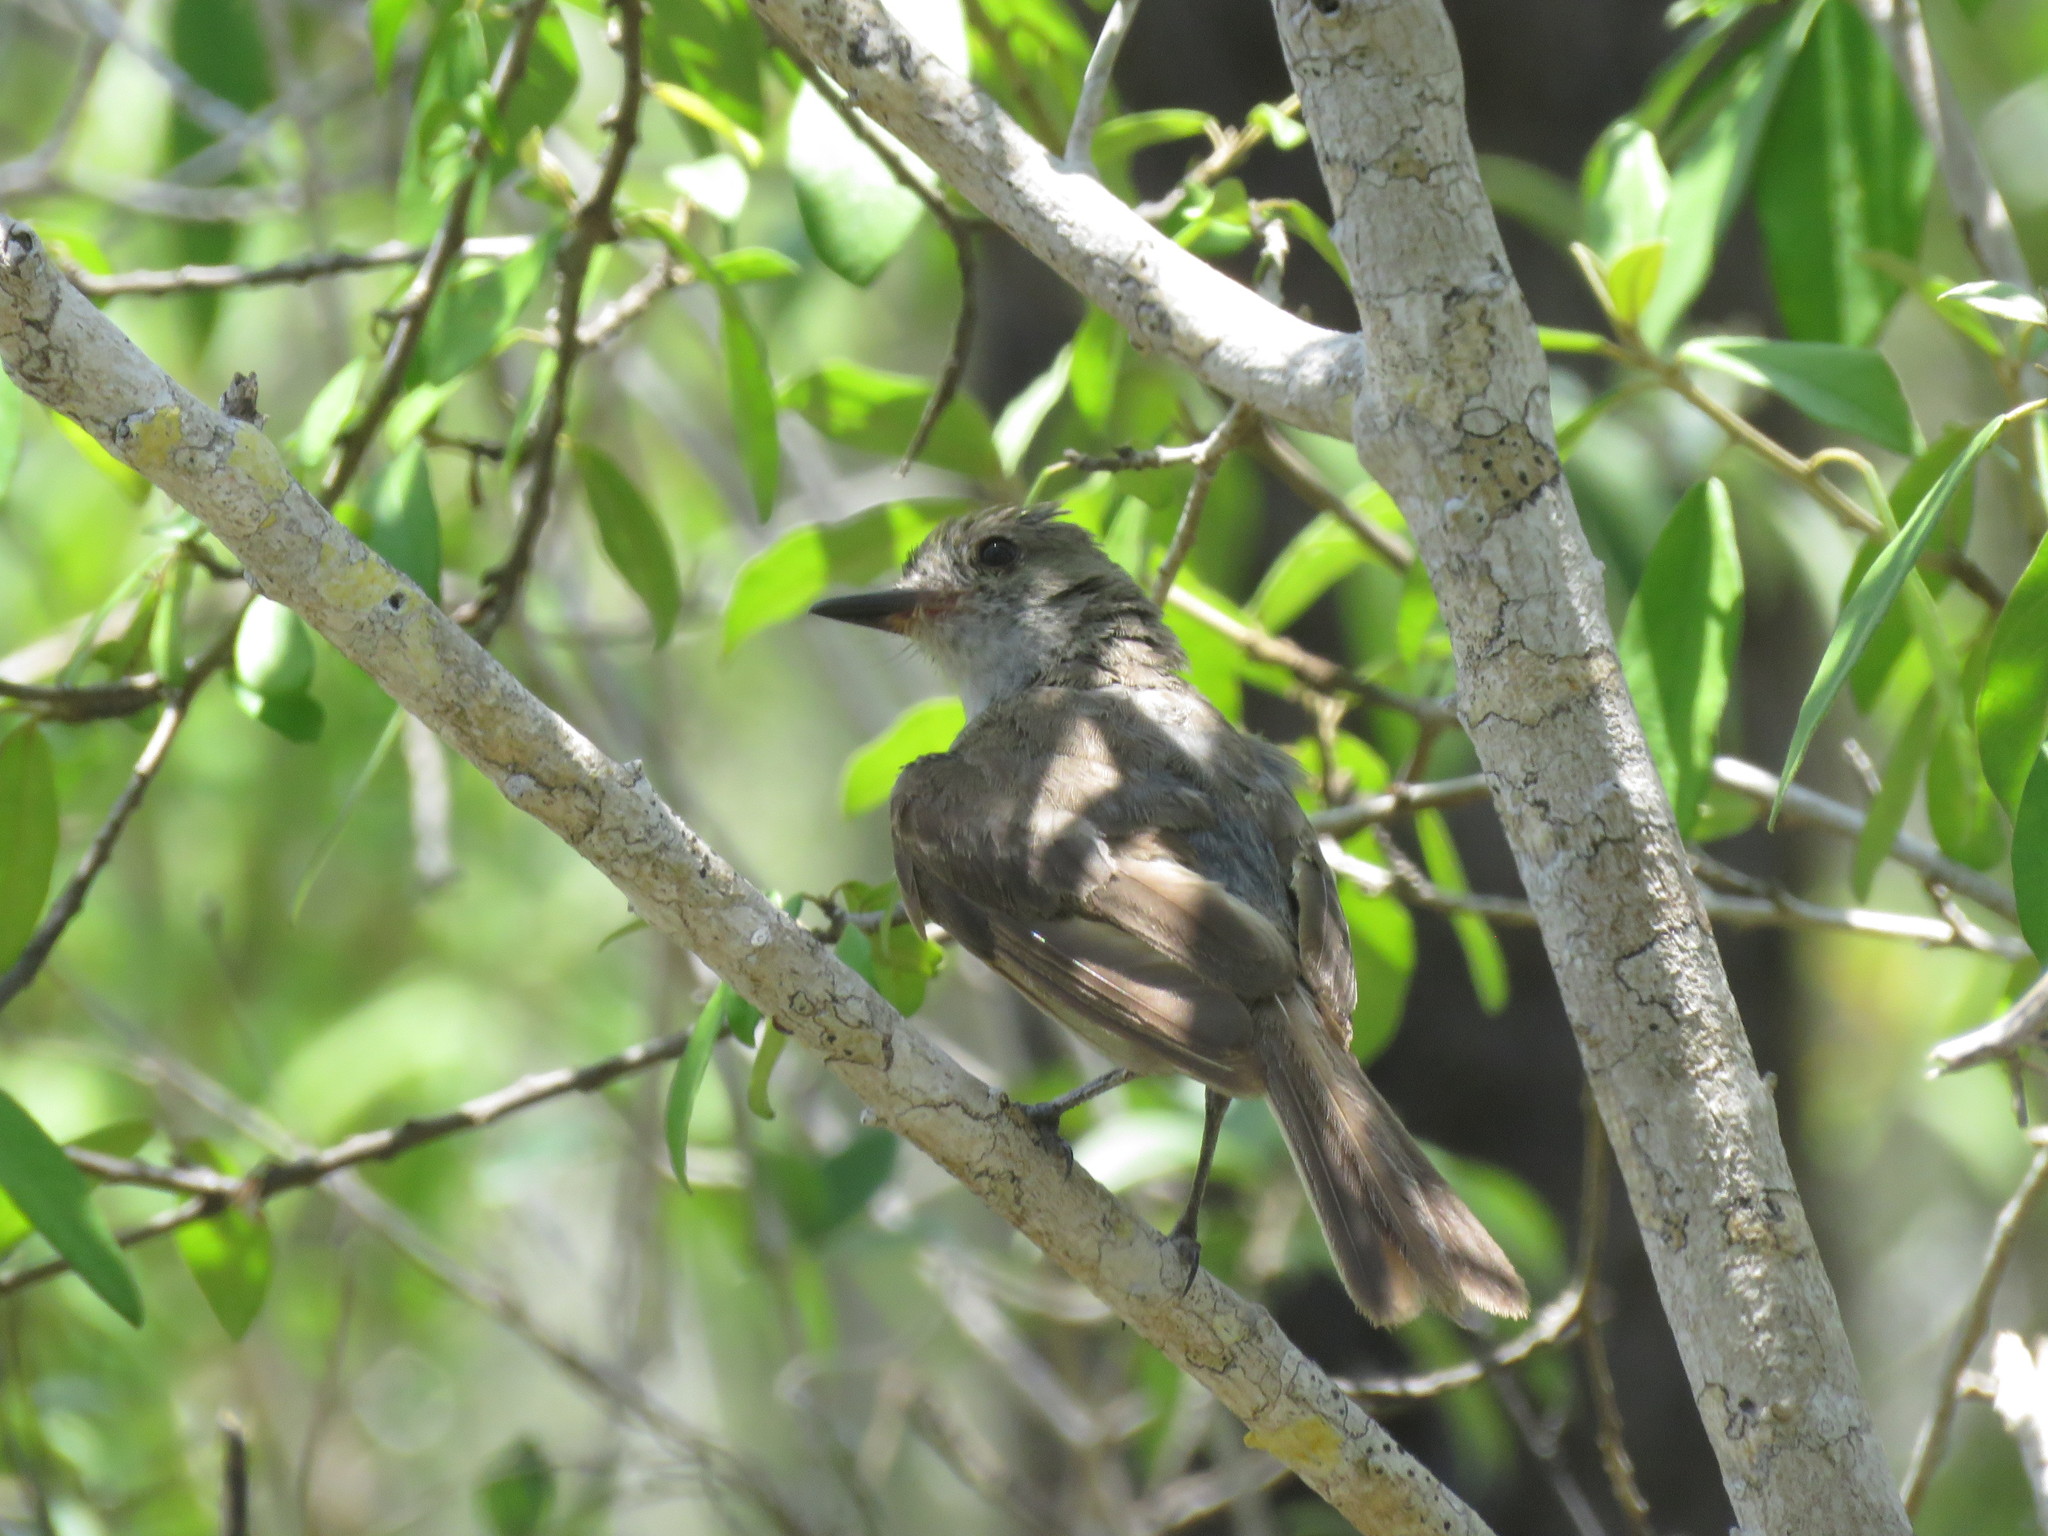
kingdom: Animalia
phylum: Chordata
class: Aves
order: Passeriformes
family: Tyrannidae
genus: Myiarchus
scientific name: Myiarchus magnirostris
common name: Galapagos flycatcher
